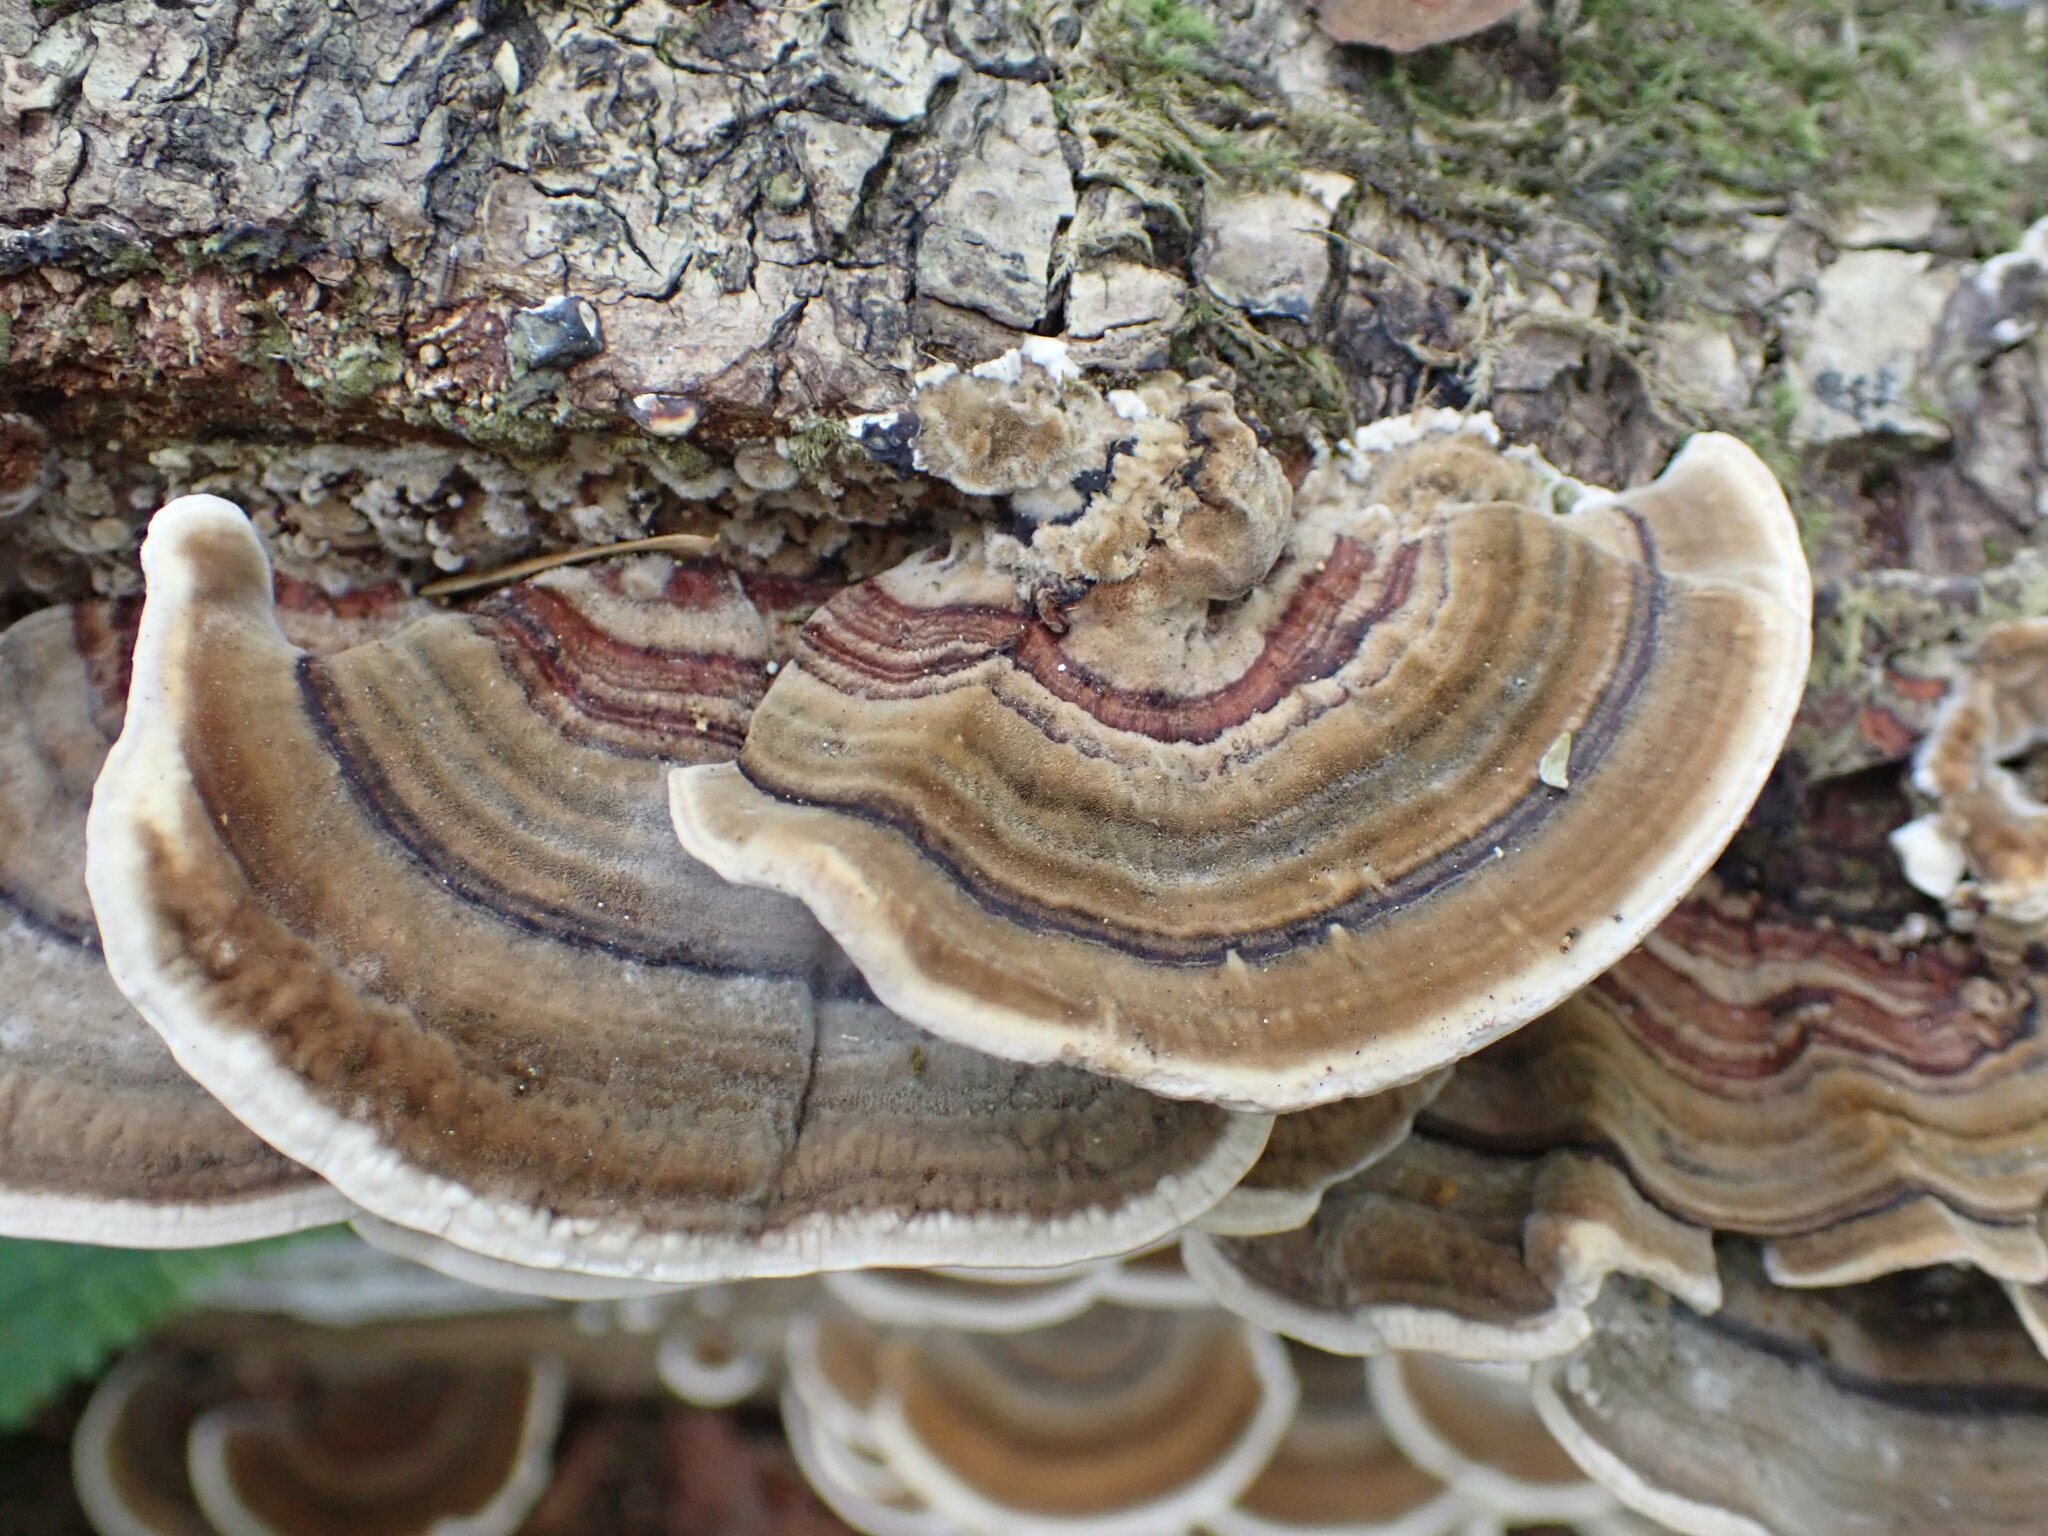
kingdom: Fungi
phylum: Basidiomycota
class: Agaricomycetes
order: Polyporales
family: Polyporaceae
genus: Trametes
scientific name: Trametes versicolor
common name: Turkeytail
